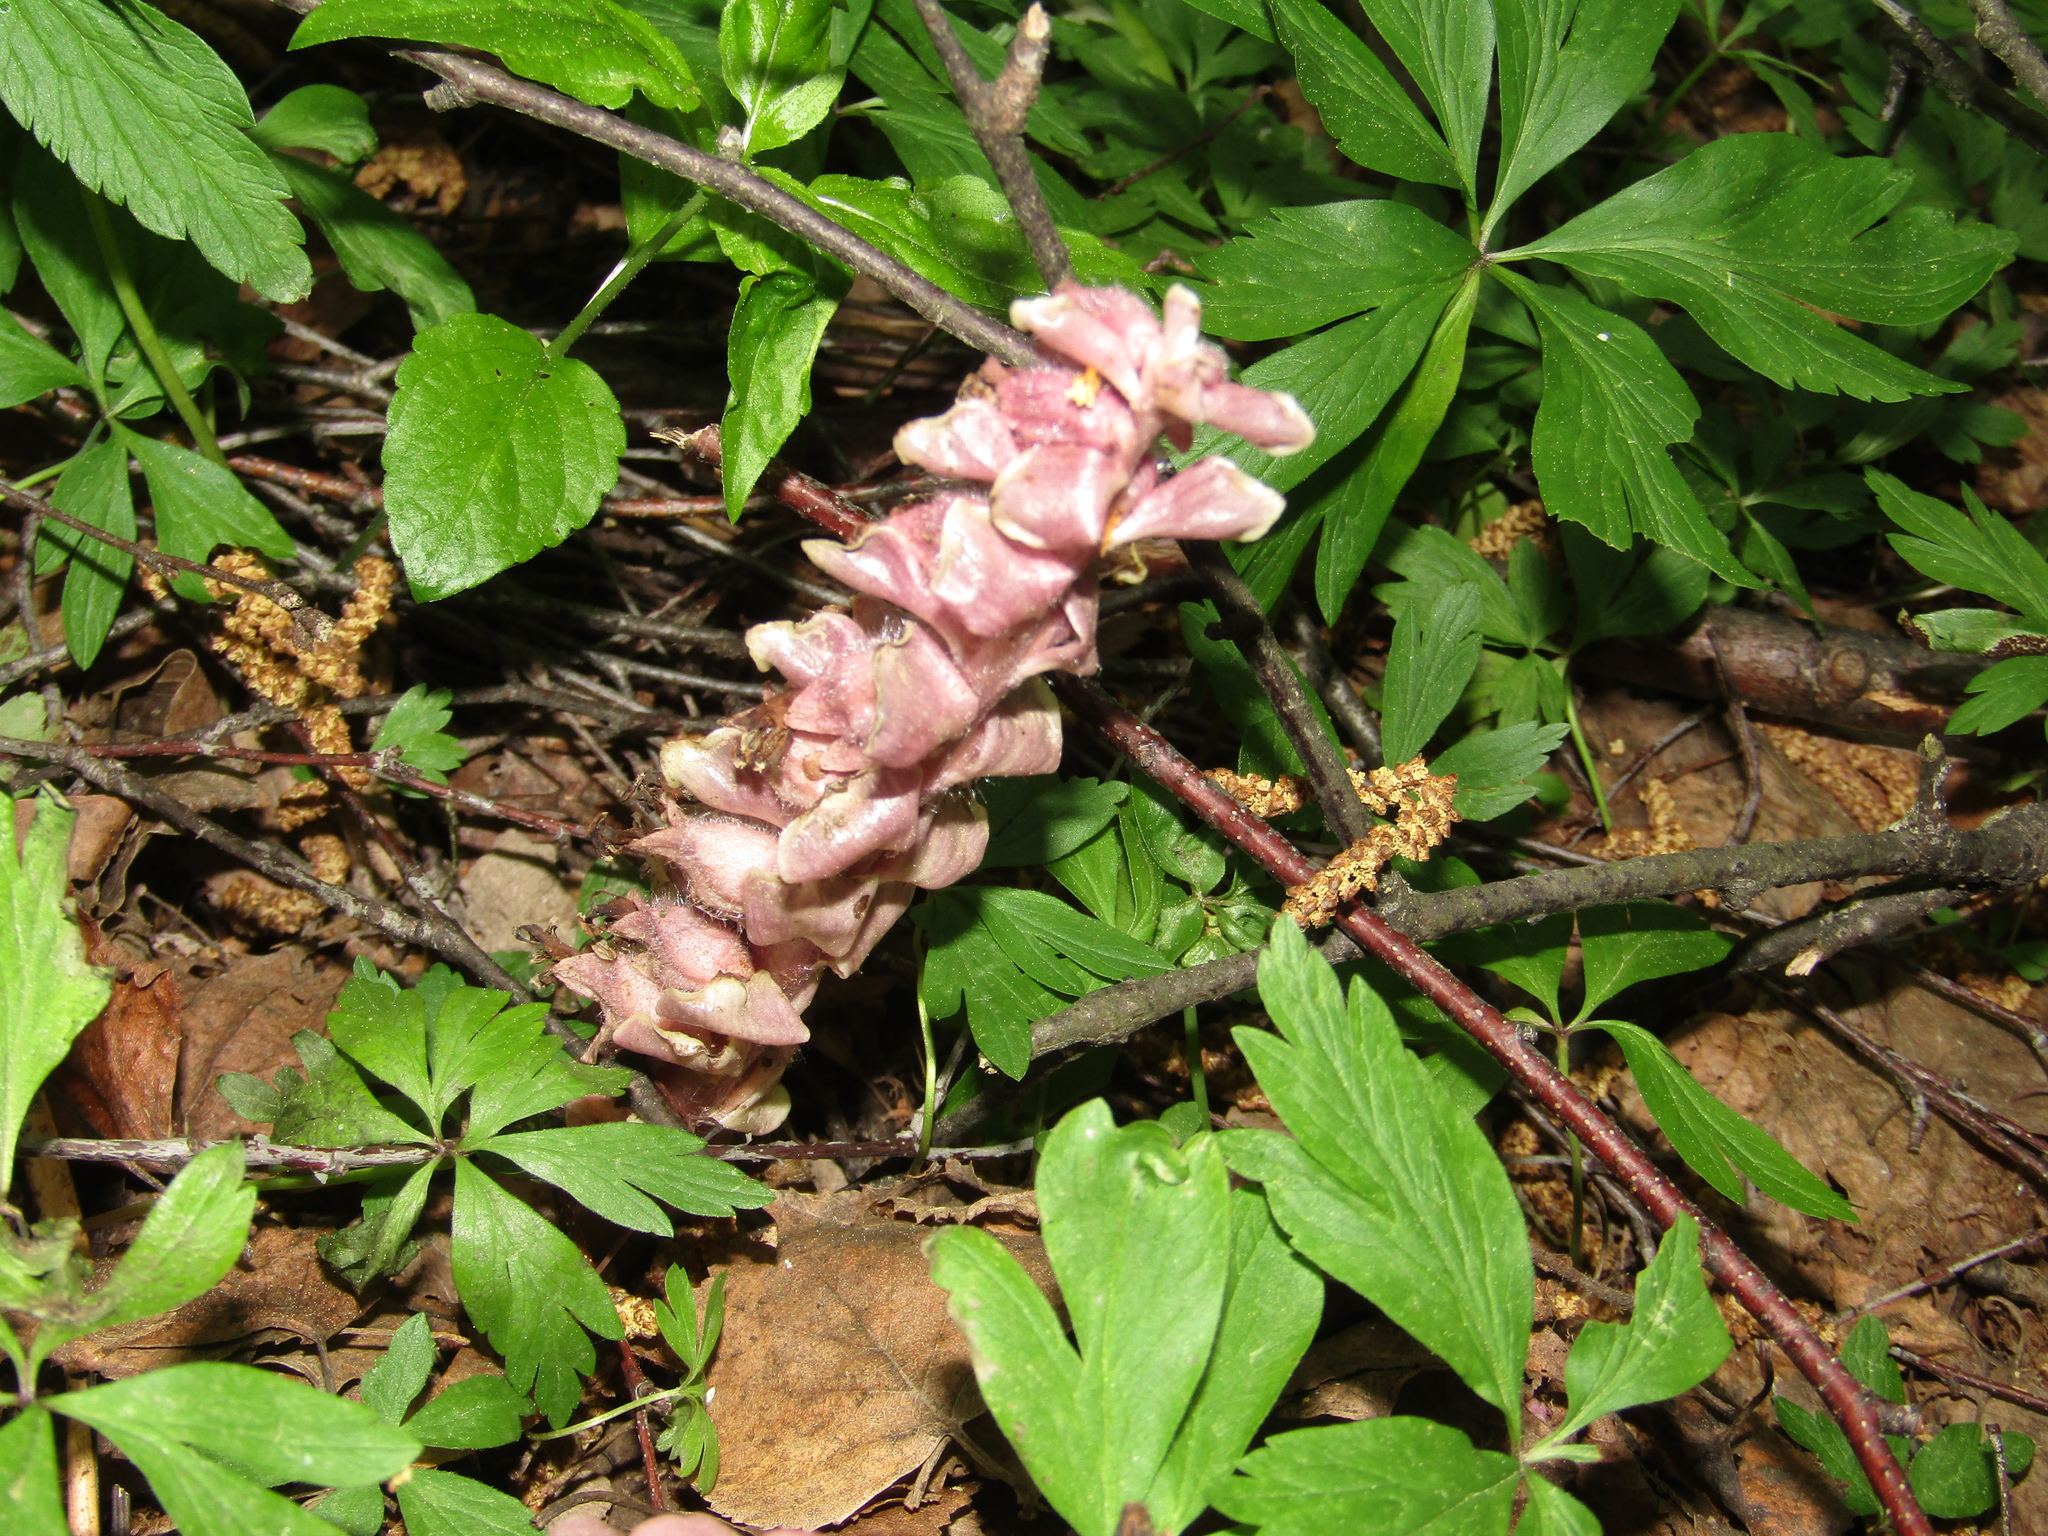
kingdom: Plantae
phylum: Tracheophyta
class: Magnoliopsida
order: Lamiales
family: Orobanchaceae
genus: Lathraea
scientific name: Lathraea squamaria
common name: Toothwort
